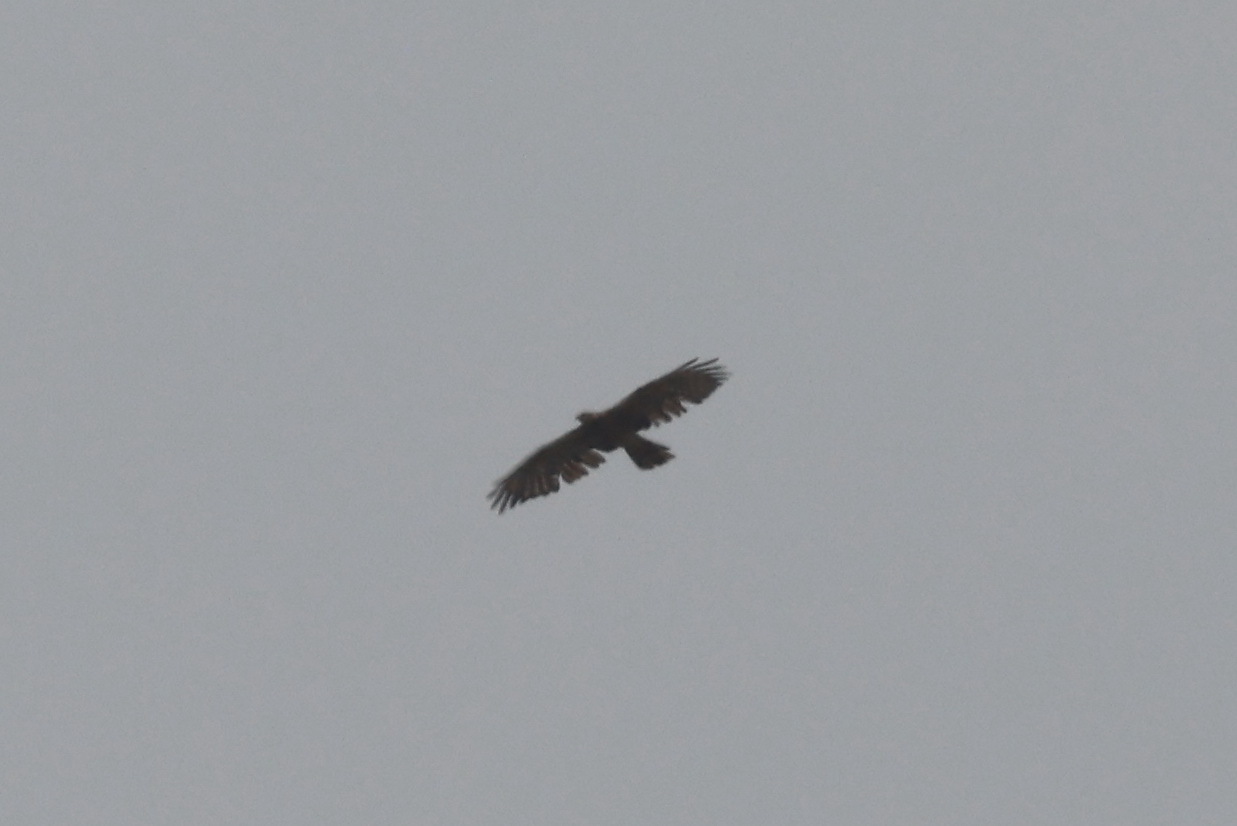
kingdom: Animalia
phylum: Chordata
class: Aves
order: Accipitriformes
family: Accipitridae
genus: Pernis
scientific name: Pernis ptilorhynchus
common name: Crested honey buzzard
